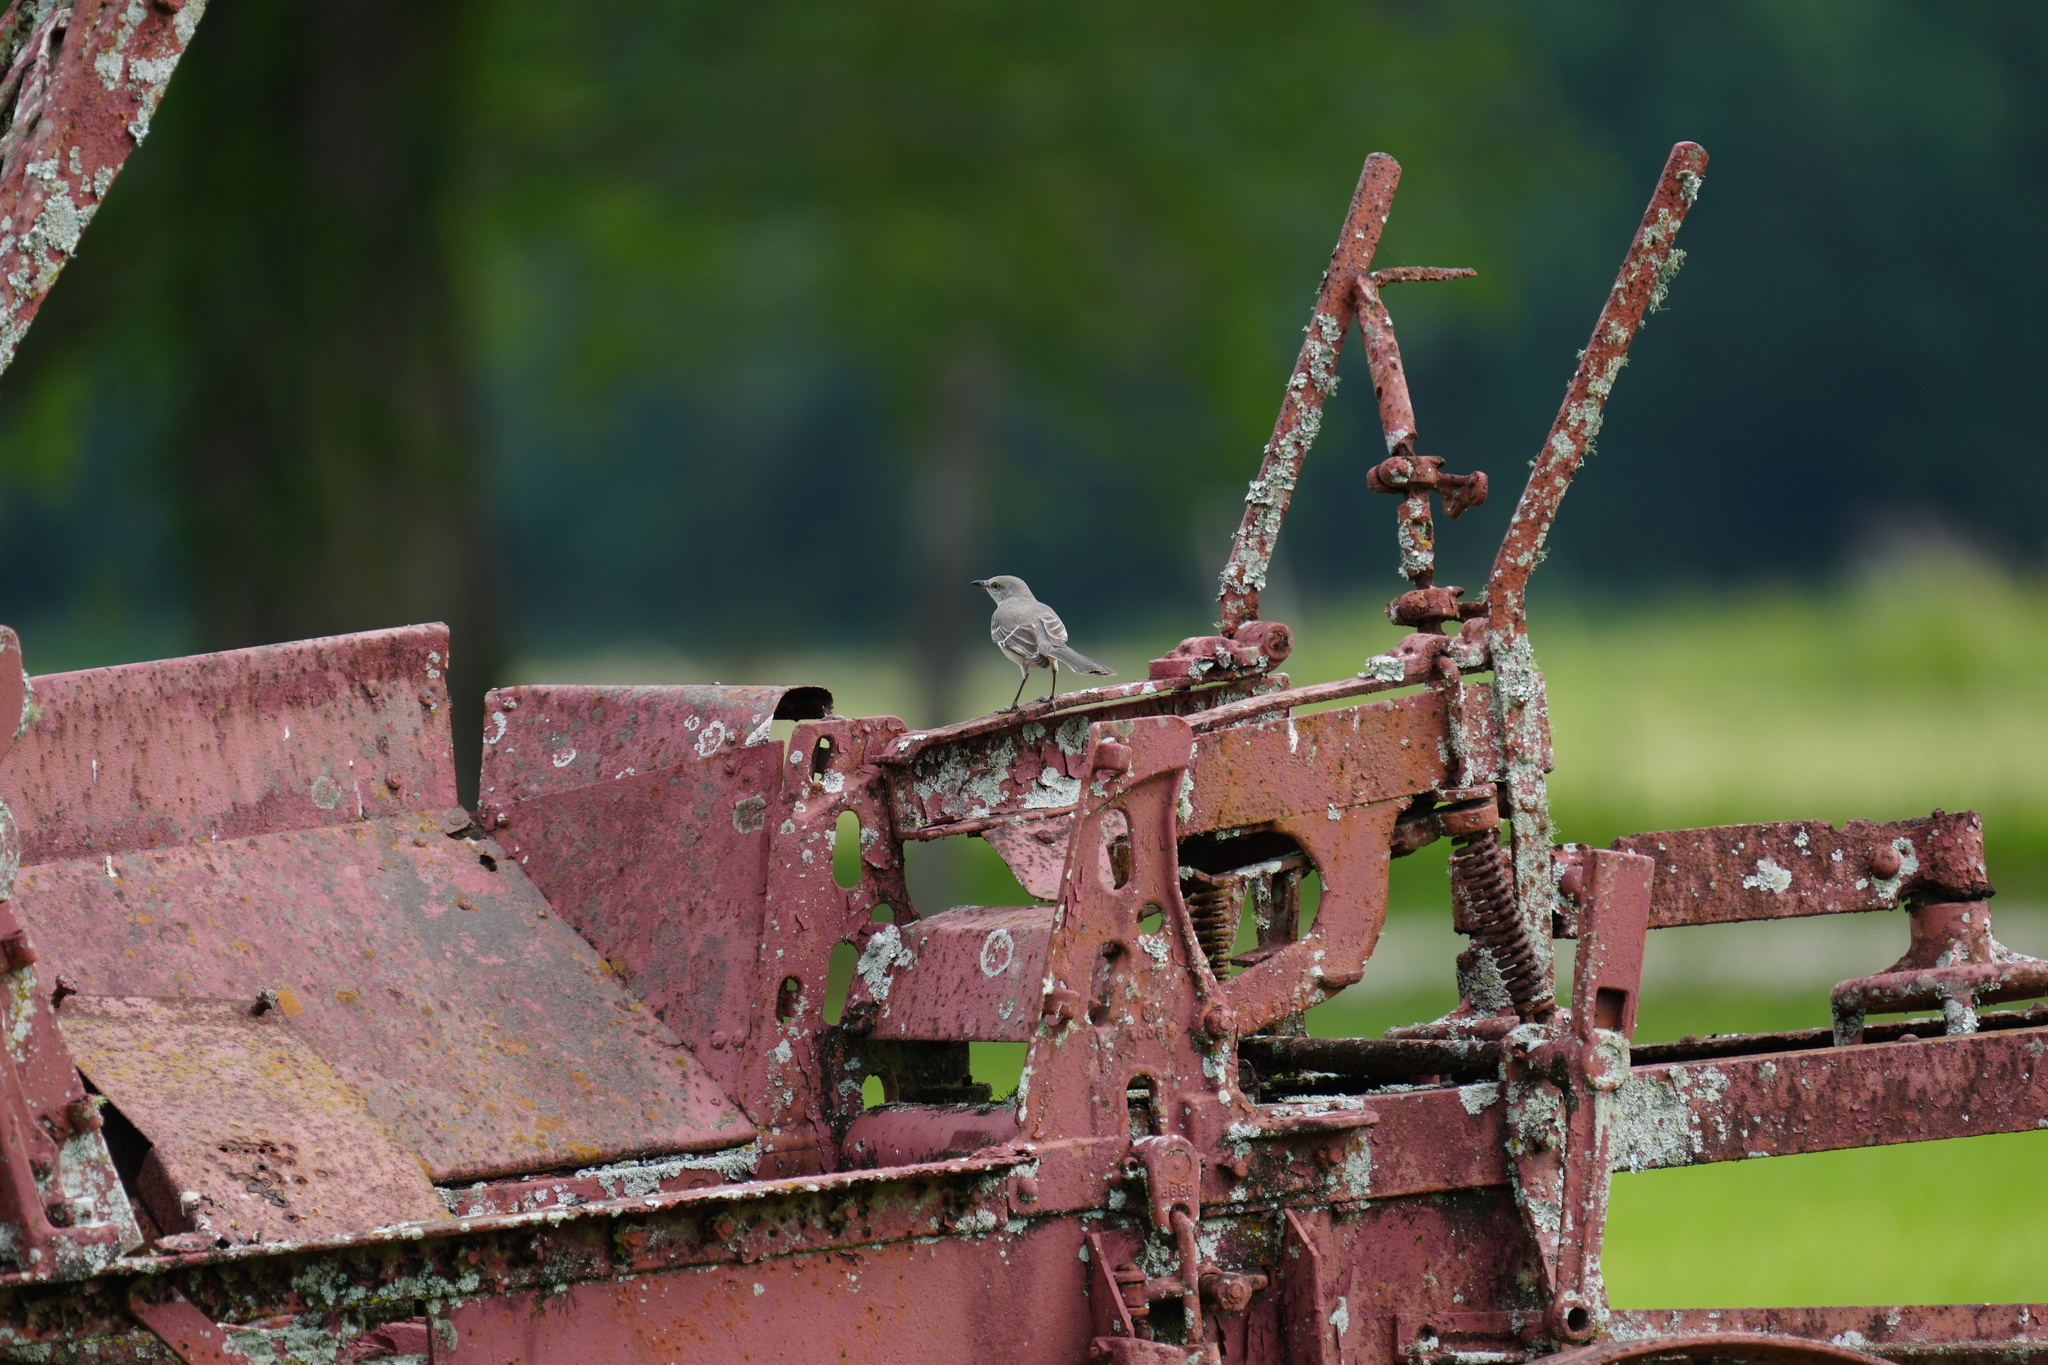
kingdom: Animalia
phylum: Chordata
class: Aves
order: Passeriformes
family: Mimidae
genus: Mimus
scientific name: Mimus polyglottos
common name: Northern mockingbird
